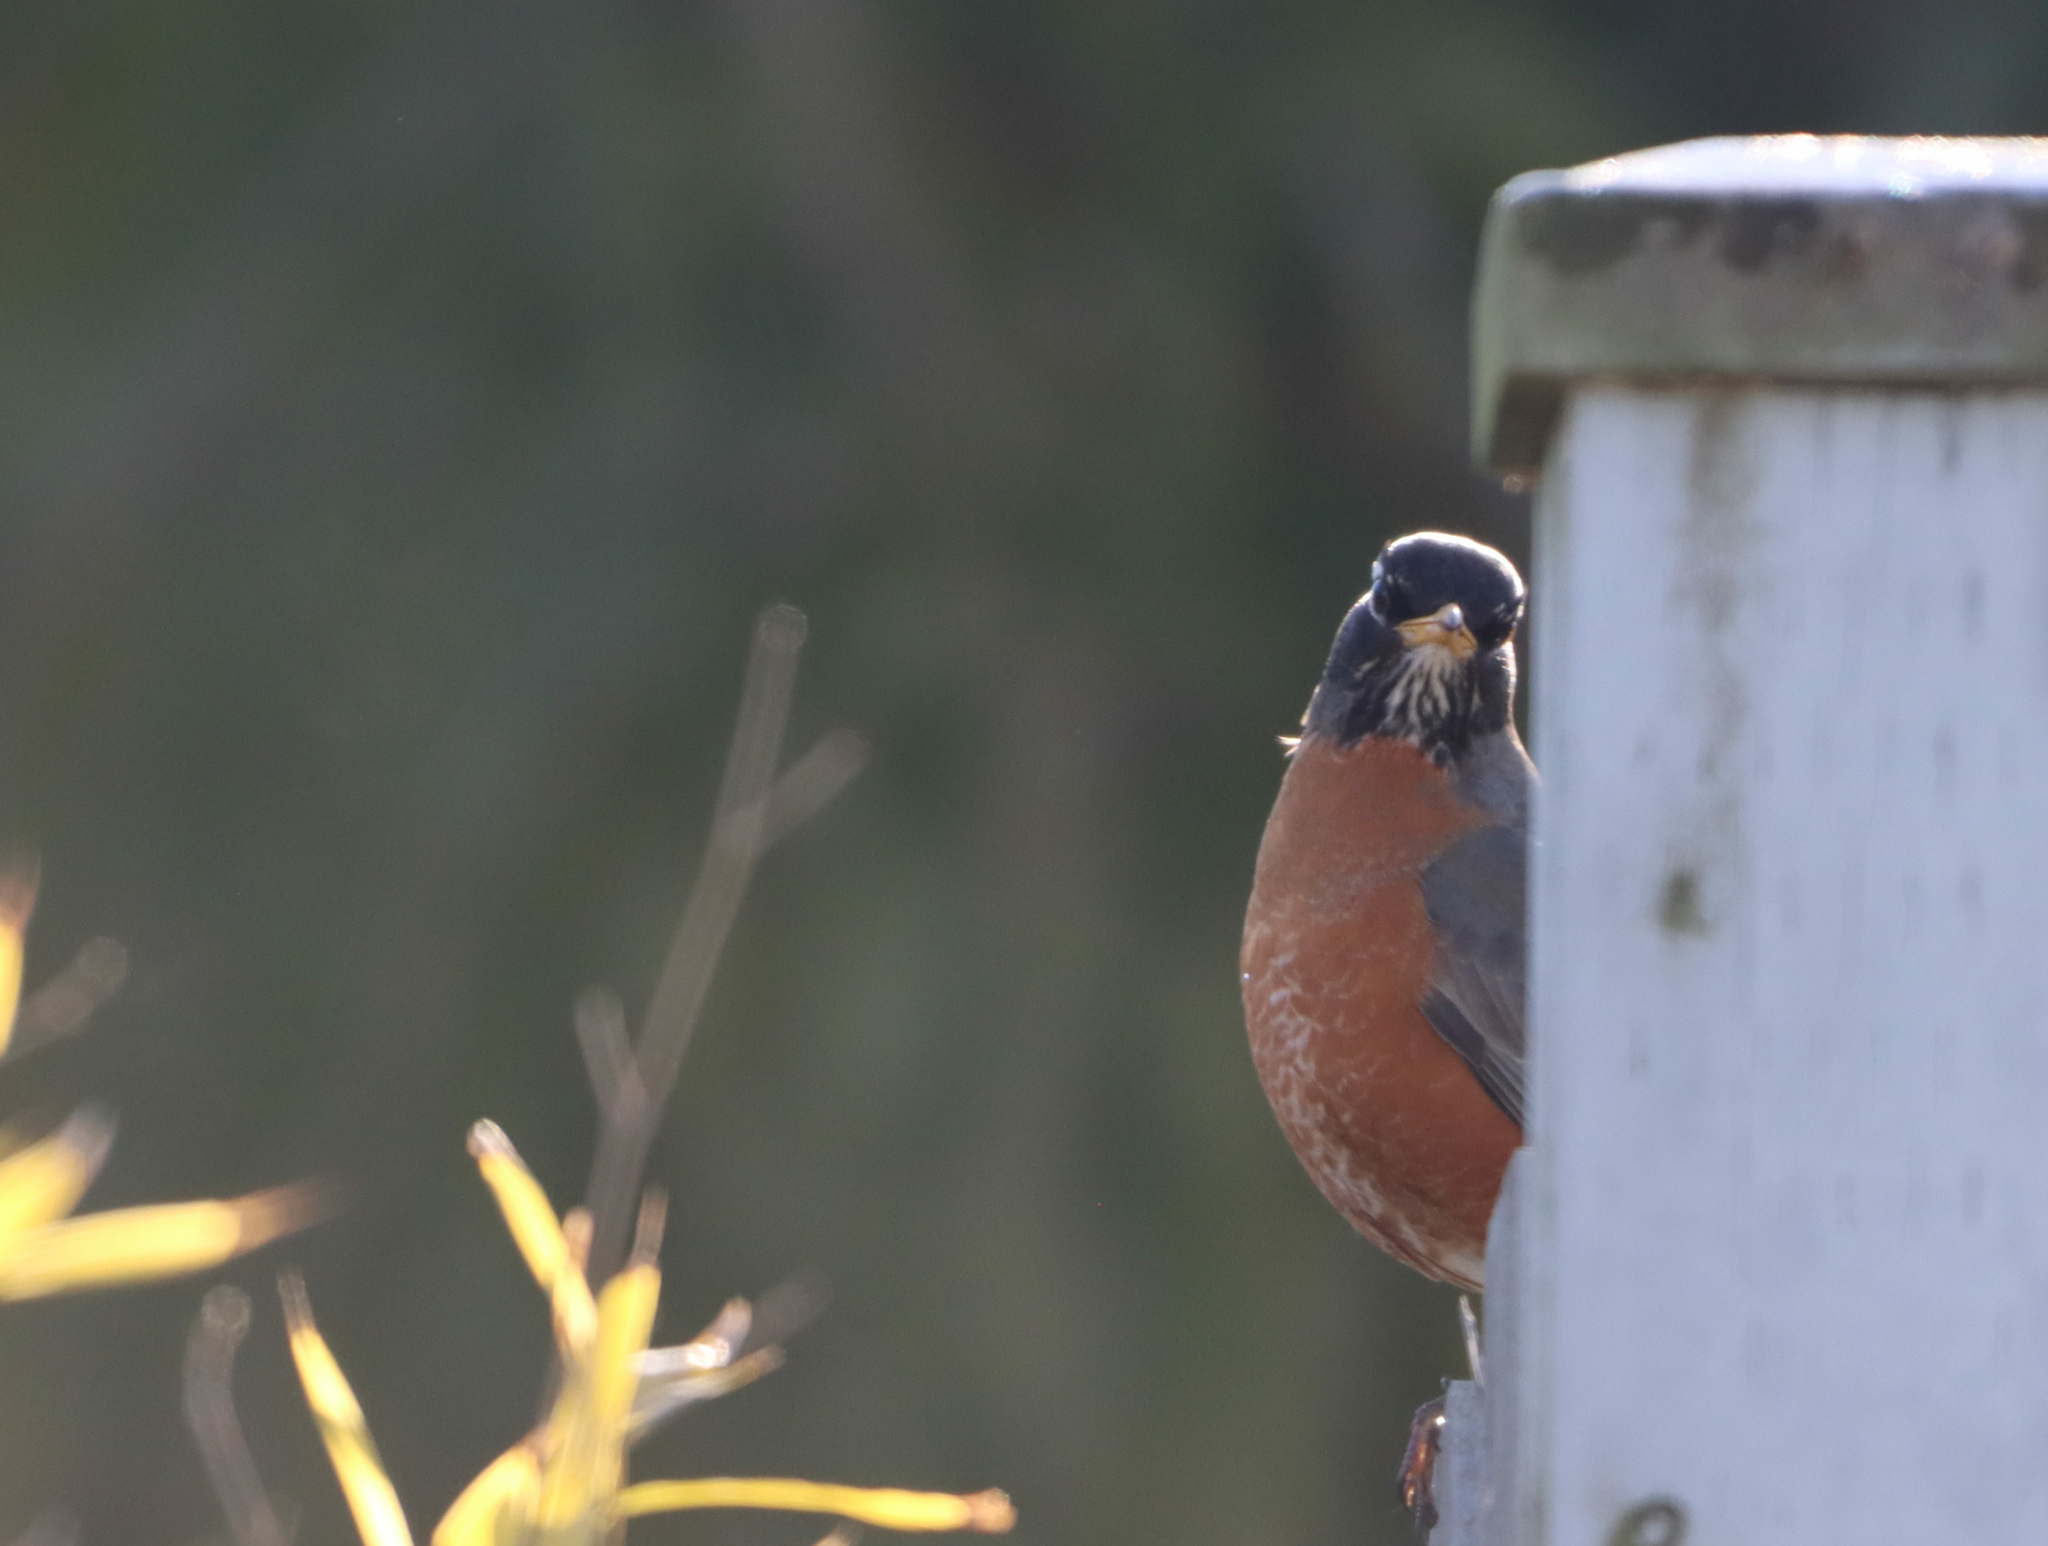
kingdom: Animalia
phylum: Chordata
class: Aves
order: Passeriformes
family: Turdidae
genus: Turdus
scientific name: Turdus migratorius
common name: American robin
